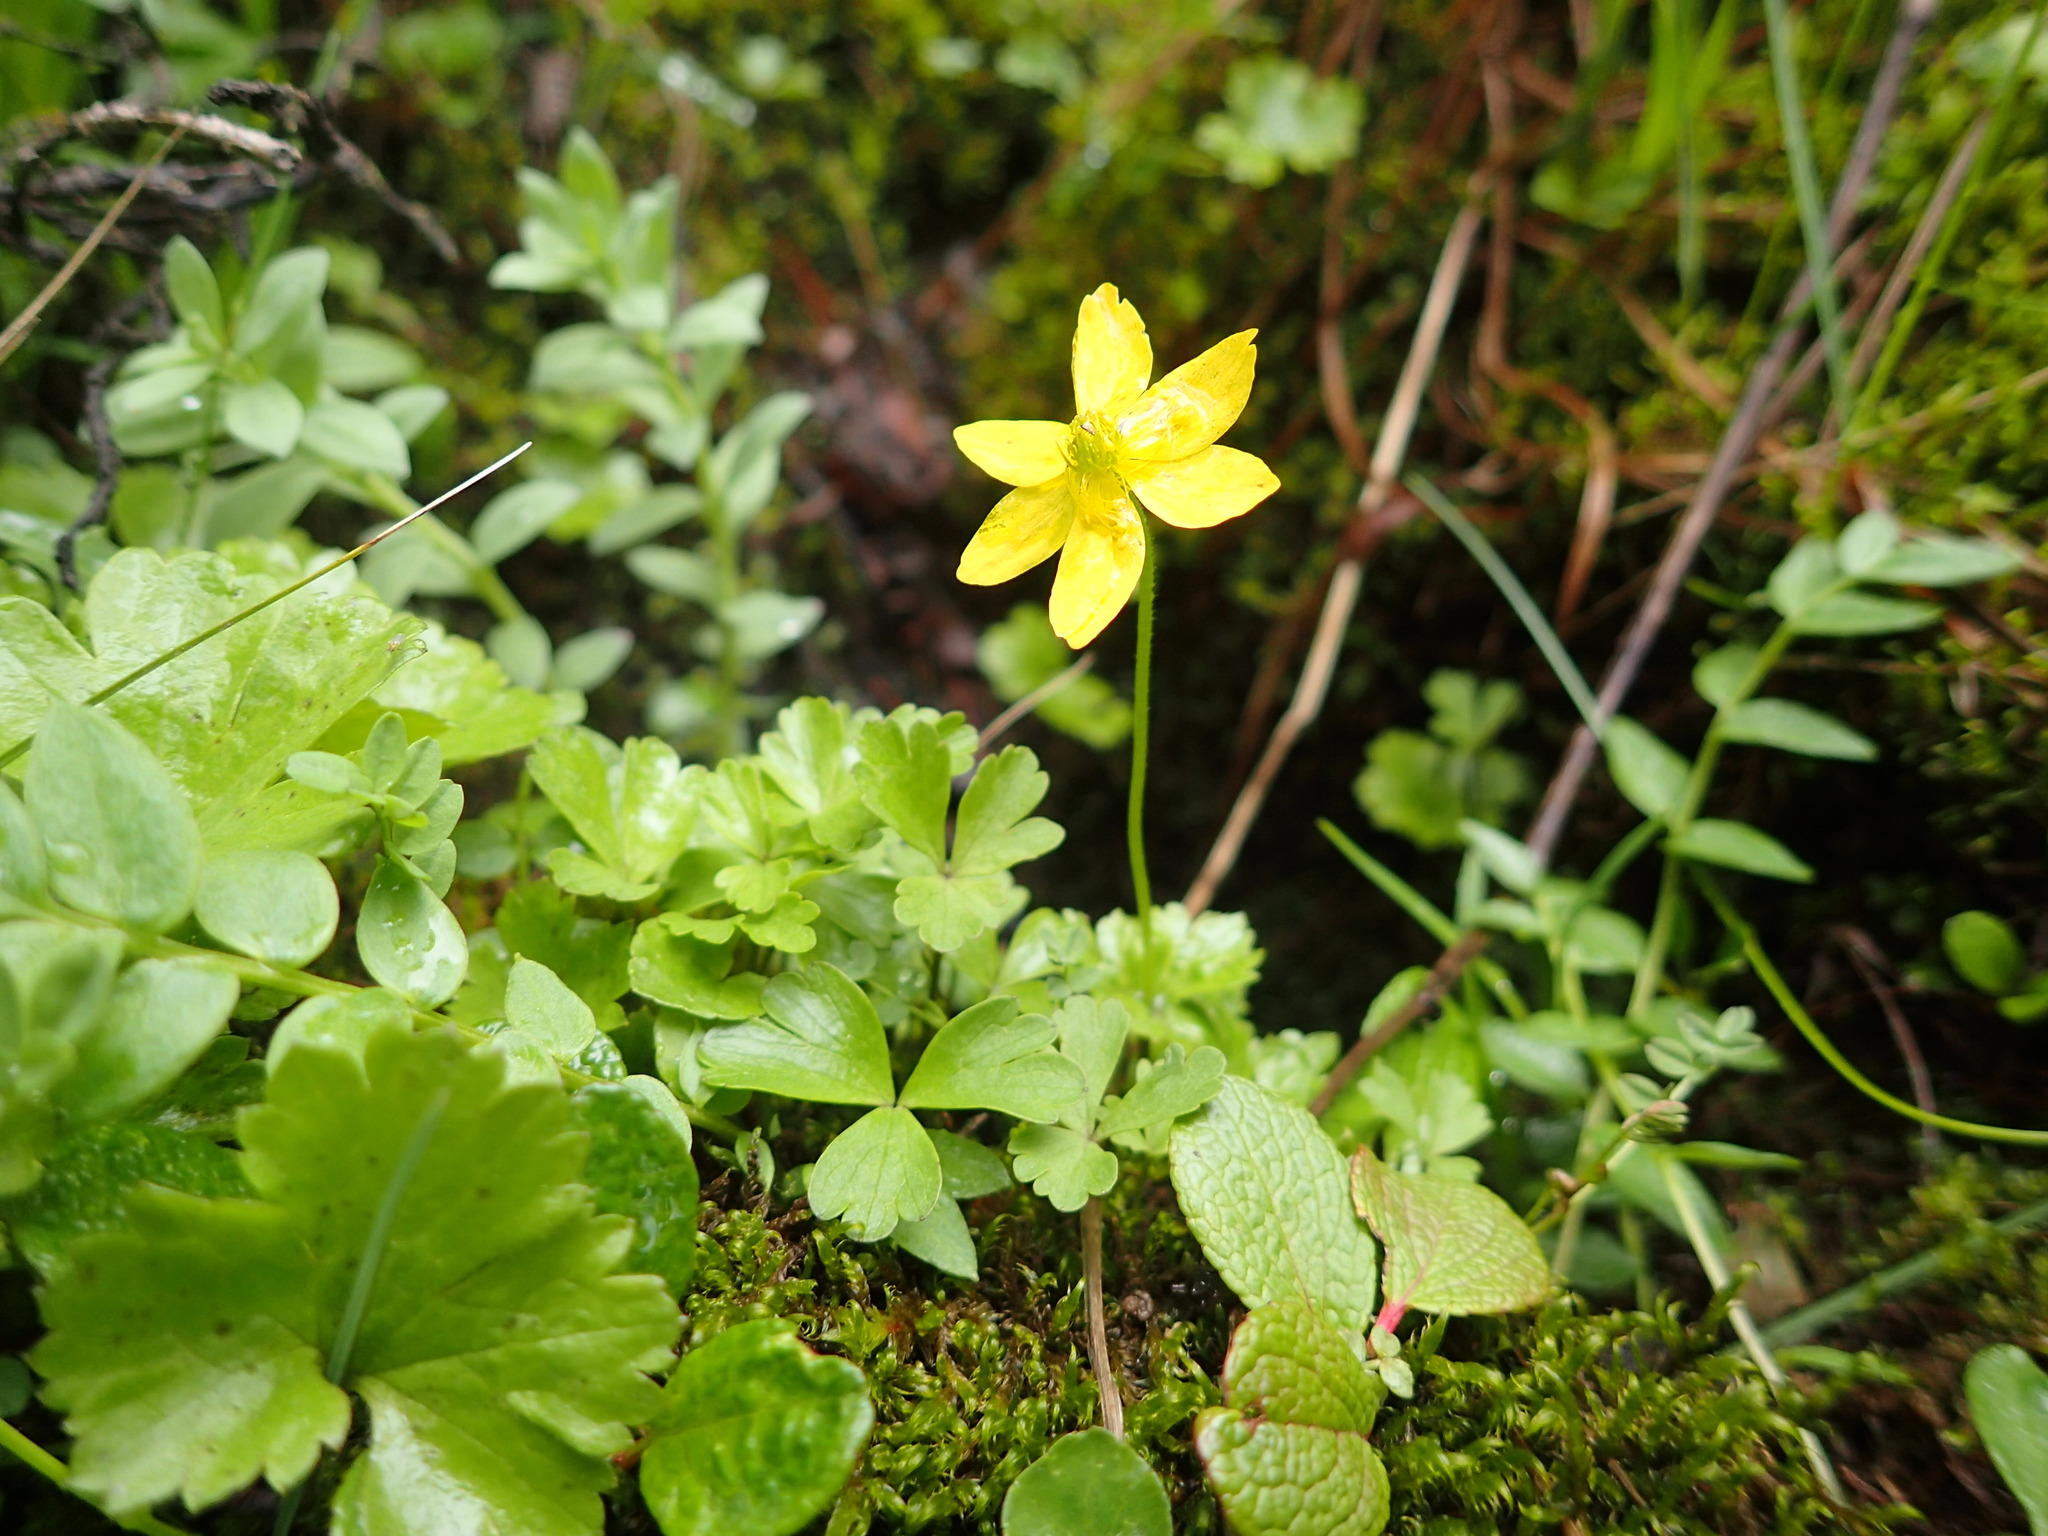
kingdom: Plantae
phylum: Tracheophyta
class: Magnoliopsida
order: Ranunculales
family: Ranunculaceae
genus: Anemonastrum
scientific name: Anemonastrum richardsonii
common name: Richardson's anemone
